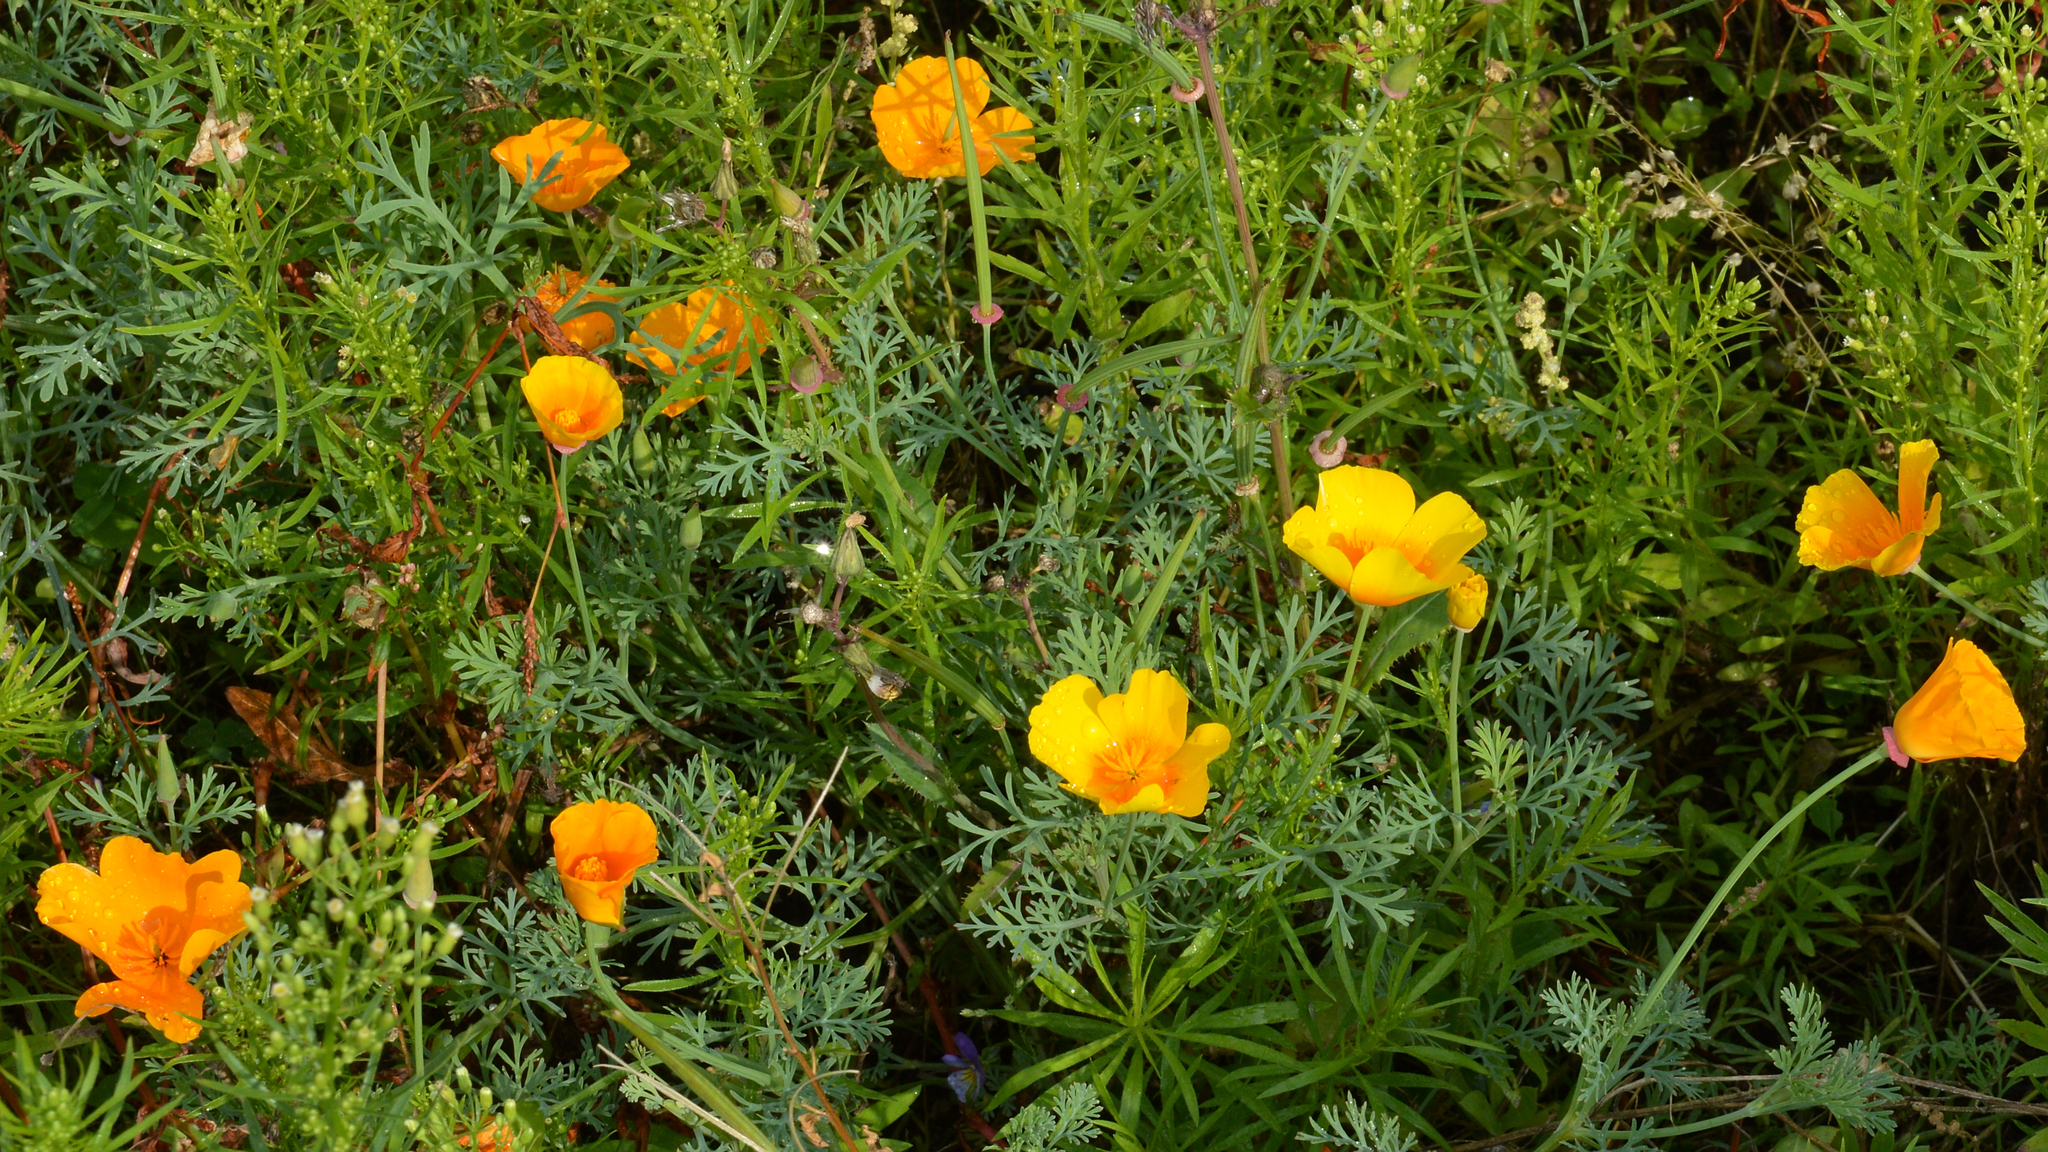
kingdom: Plantae
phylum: Tracheophyta
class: Magnoliopsida
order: Ranunculales
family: Papaveraceae
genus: Eschscholzia
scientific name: Eschscholzia californica
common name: California poppy
